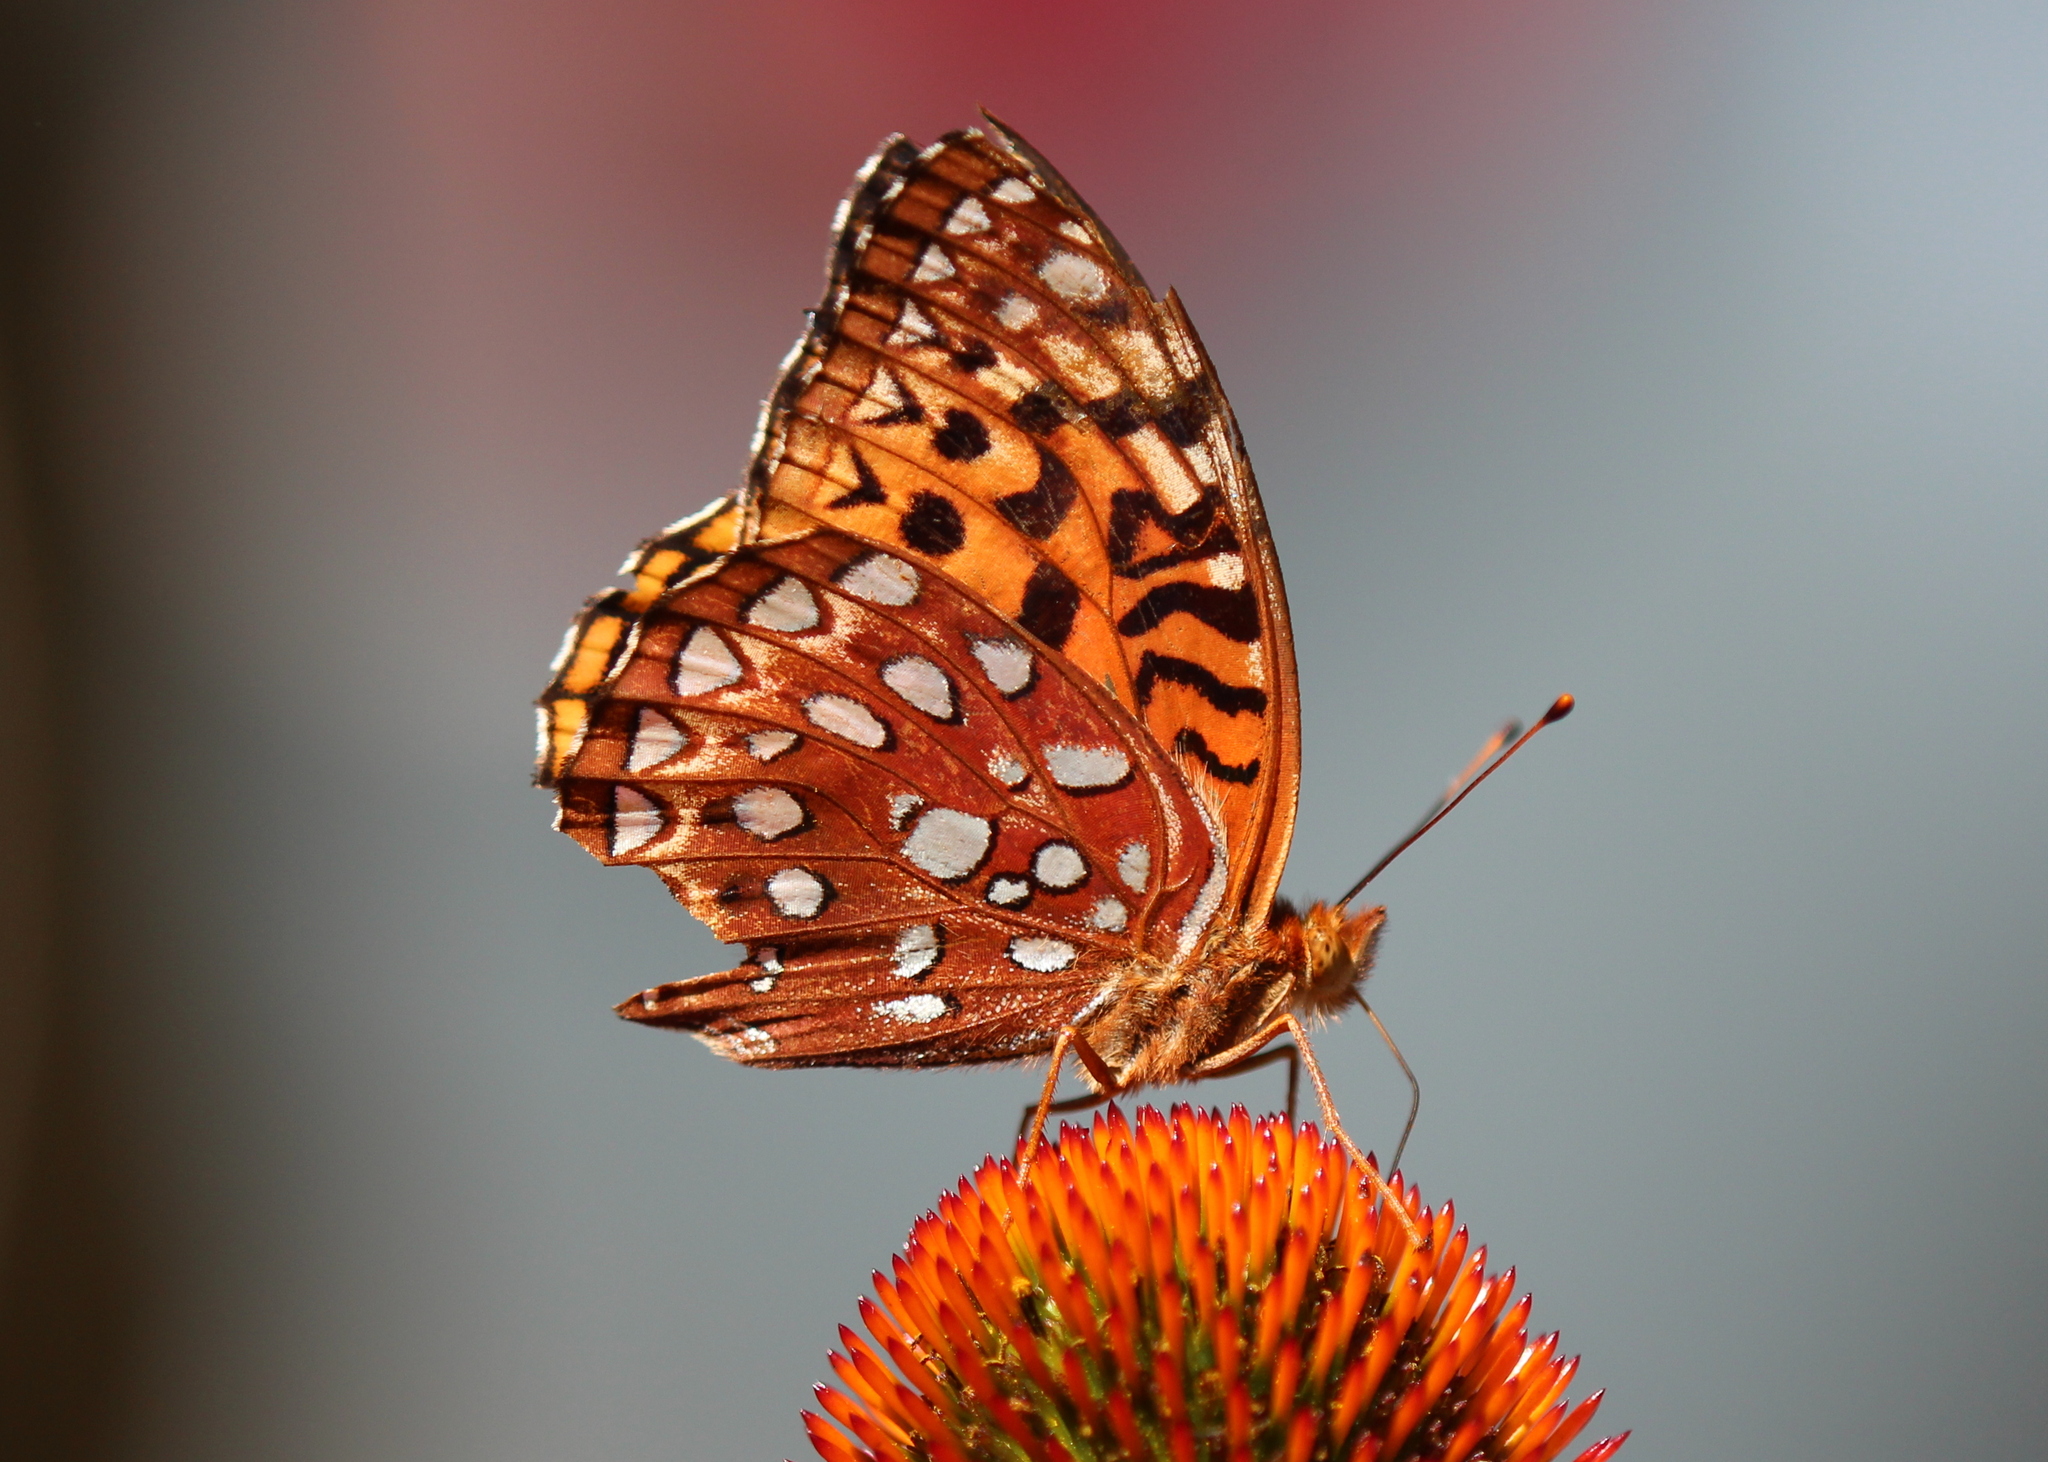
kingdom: Animalia
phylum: Arthropoda
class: Insecta
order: Lepidoptera
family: Nymphalidae
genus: Speyeria
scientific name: Speyeria aphrodite
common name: Aphrodite friitllary
